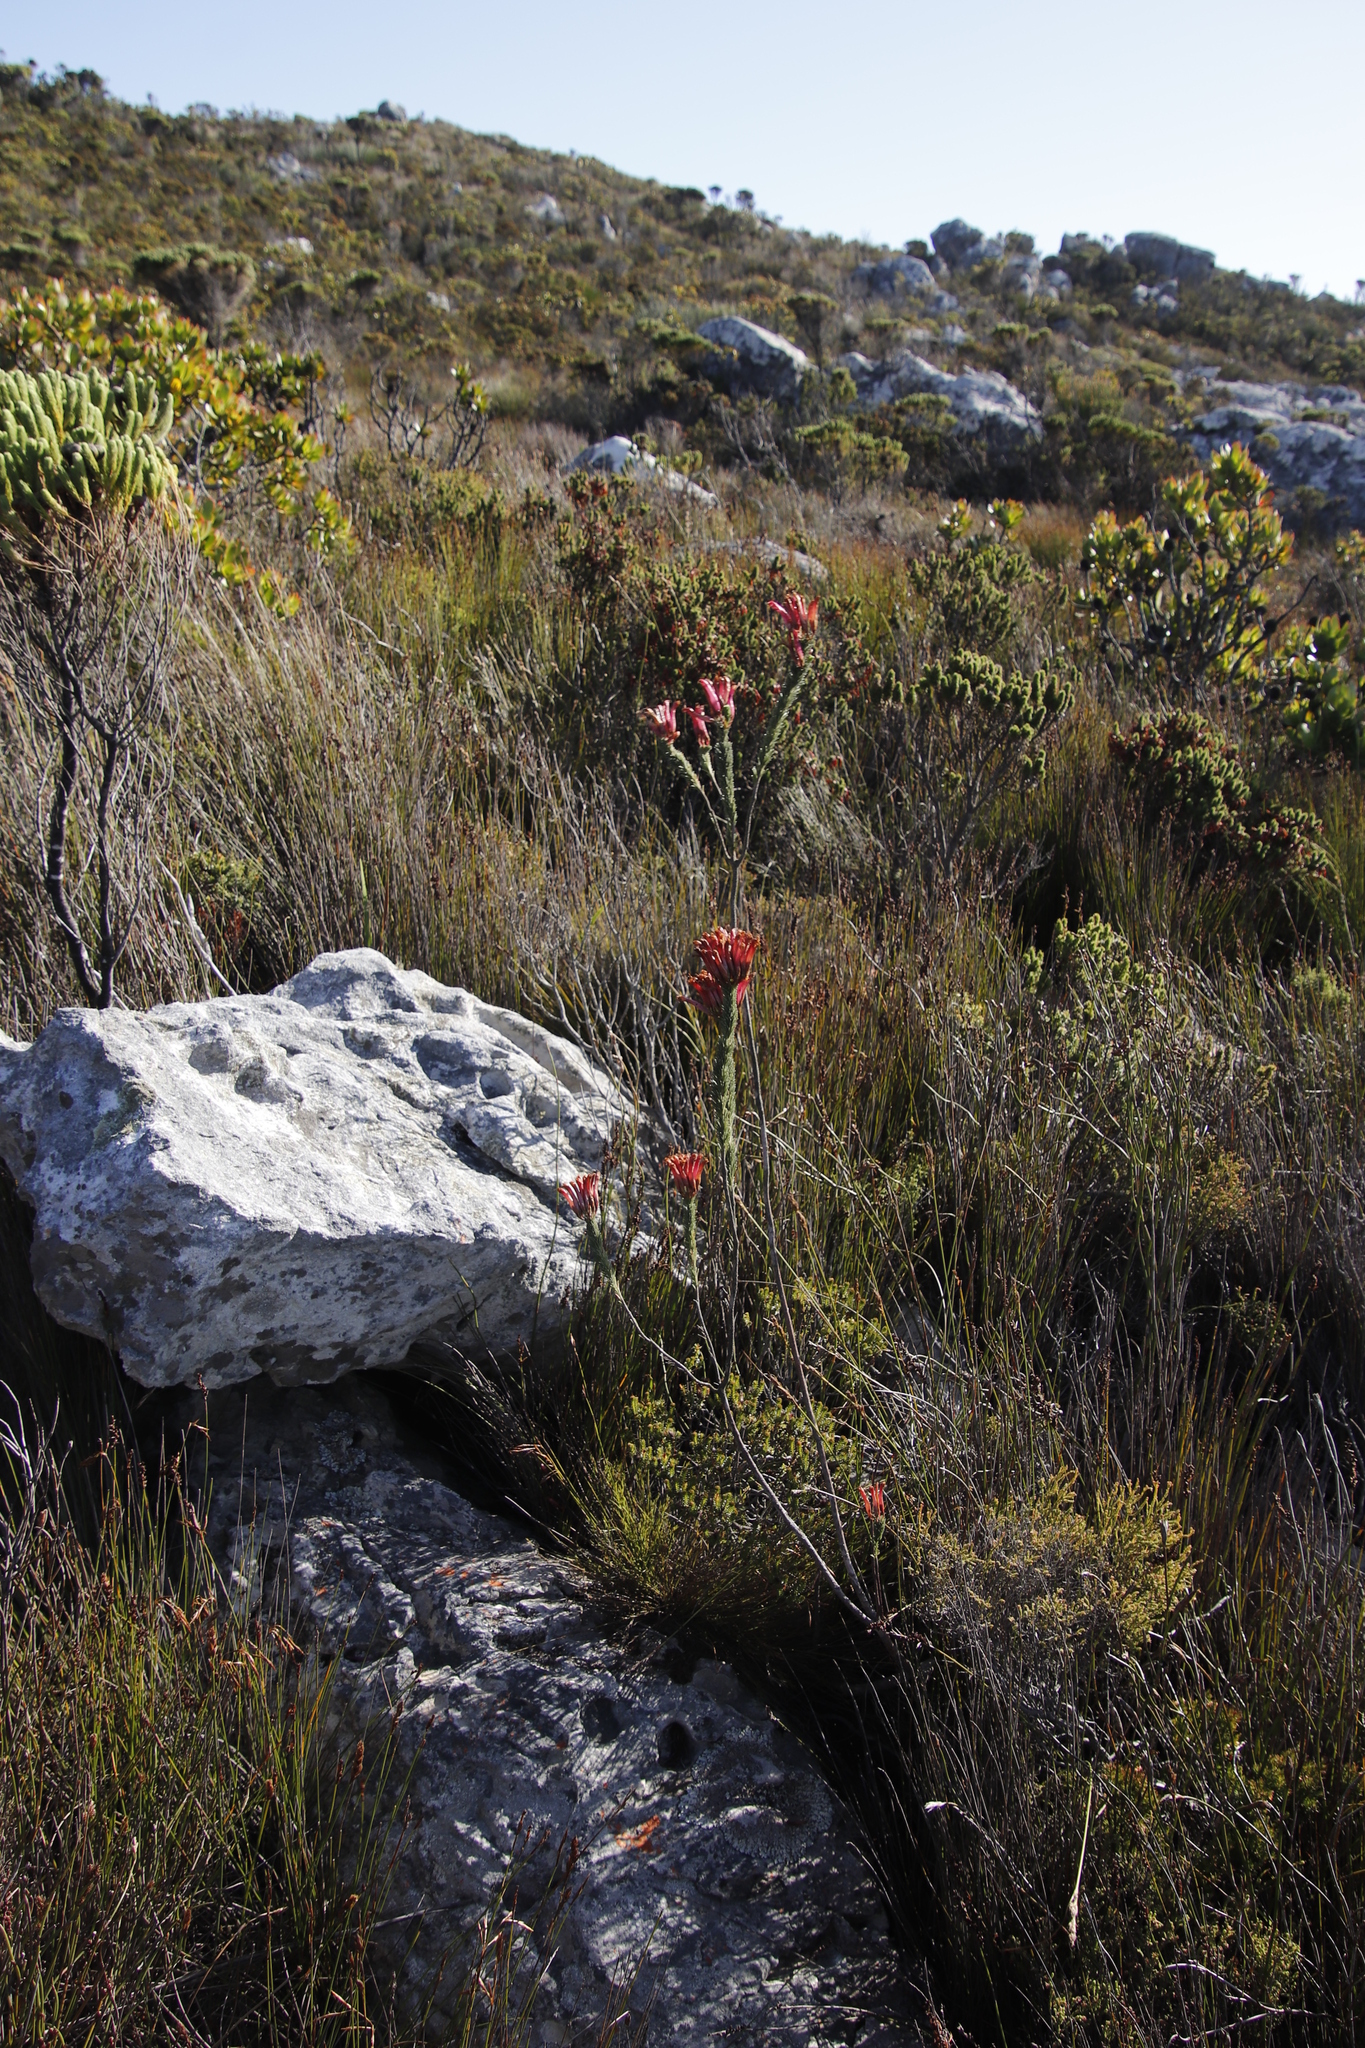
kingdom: Plantae
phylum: Tracheophyta
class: Magnoliopsida
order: Ericales
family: Ericaceae
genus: Erica
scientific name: Erica fascicularis
